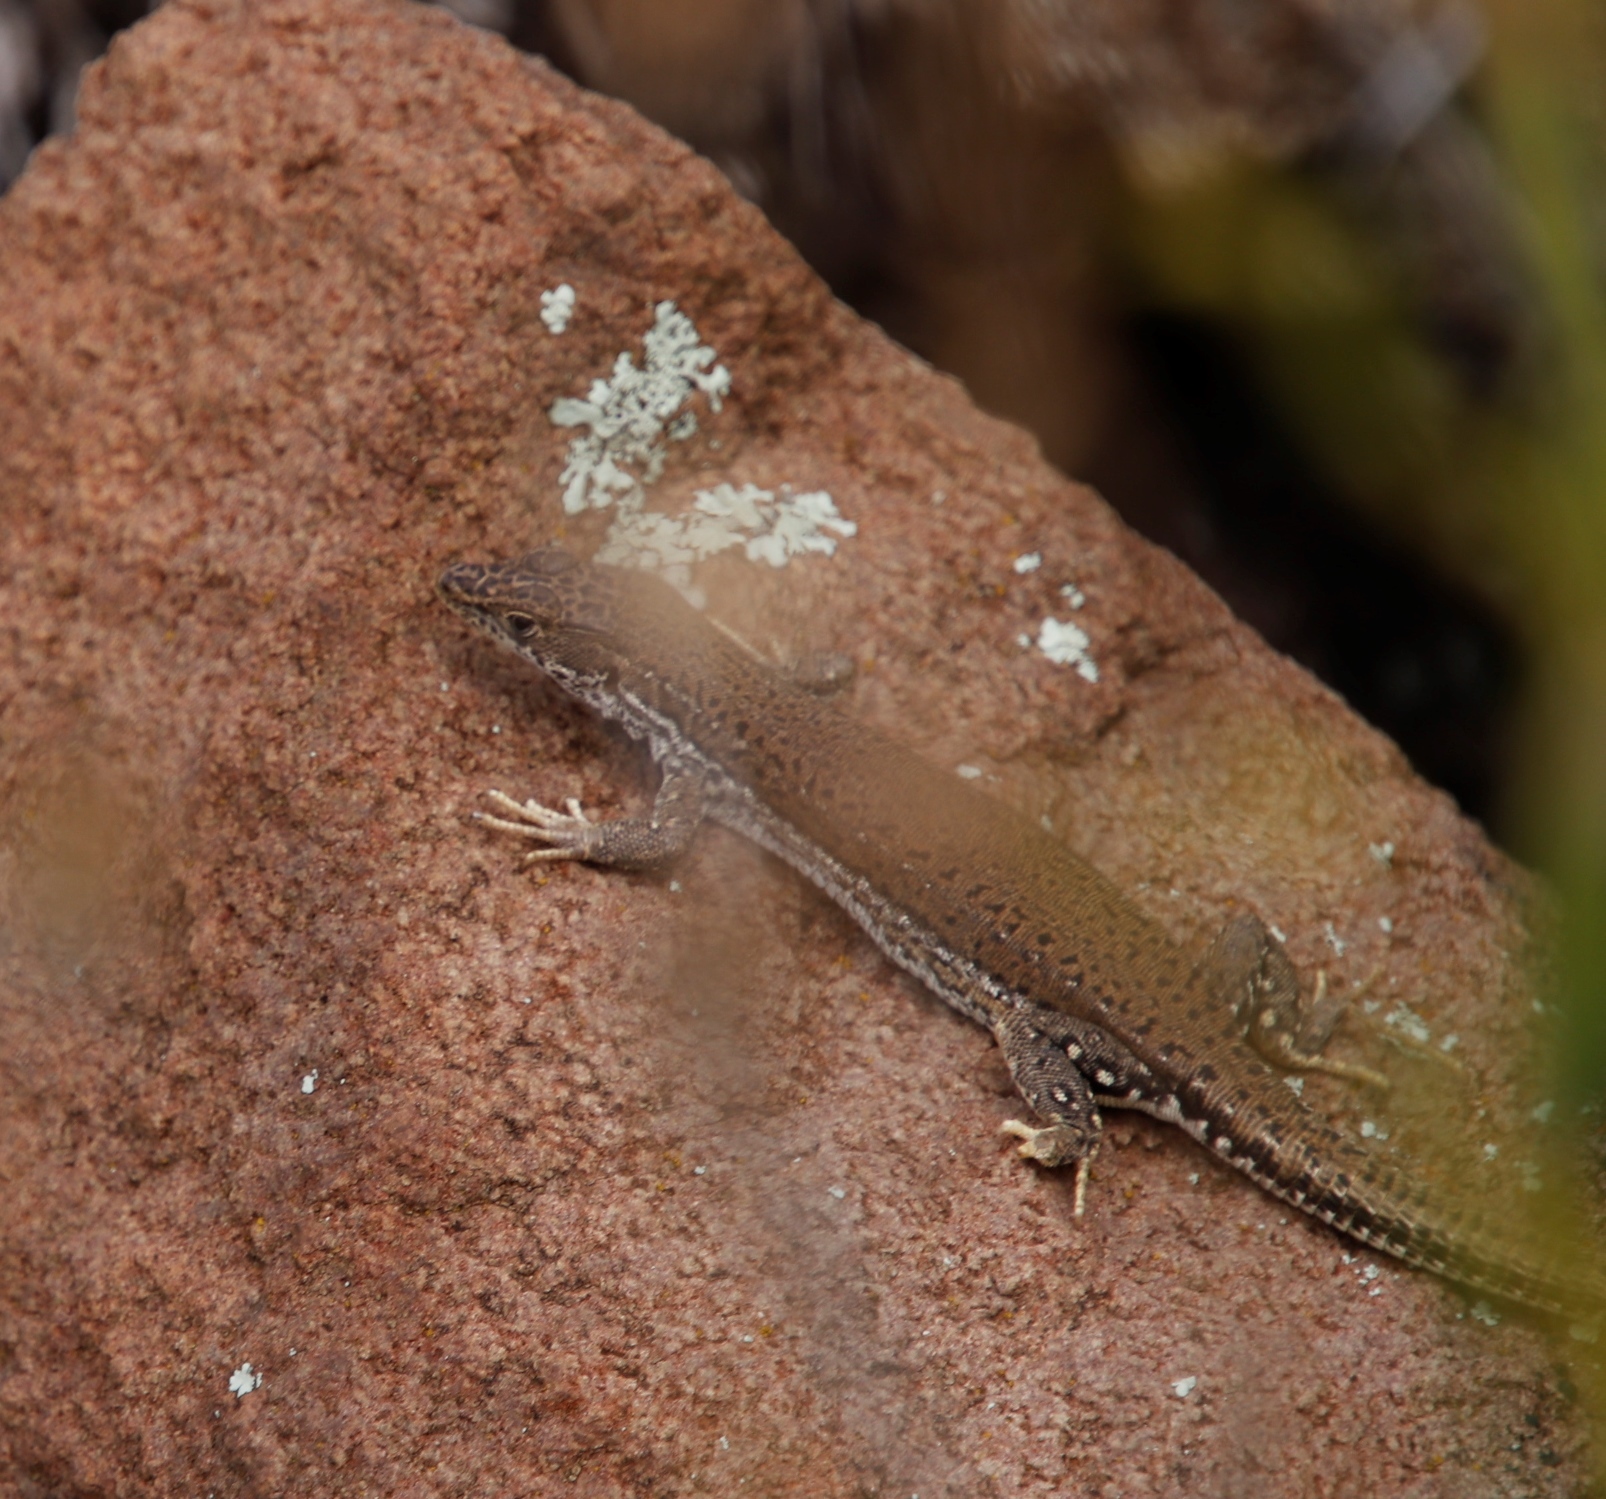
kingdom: Animalia
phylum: Chordata
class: Squamata
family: Lacertidae
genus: Pedioplanis
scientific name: Pedioplanis burchelli
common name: Burchell's sand lizard
